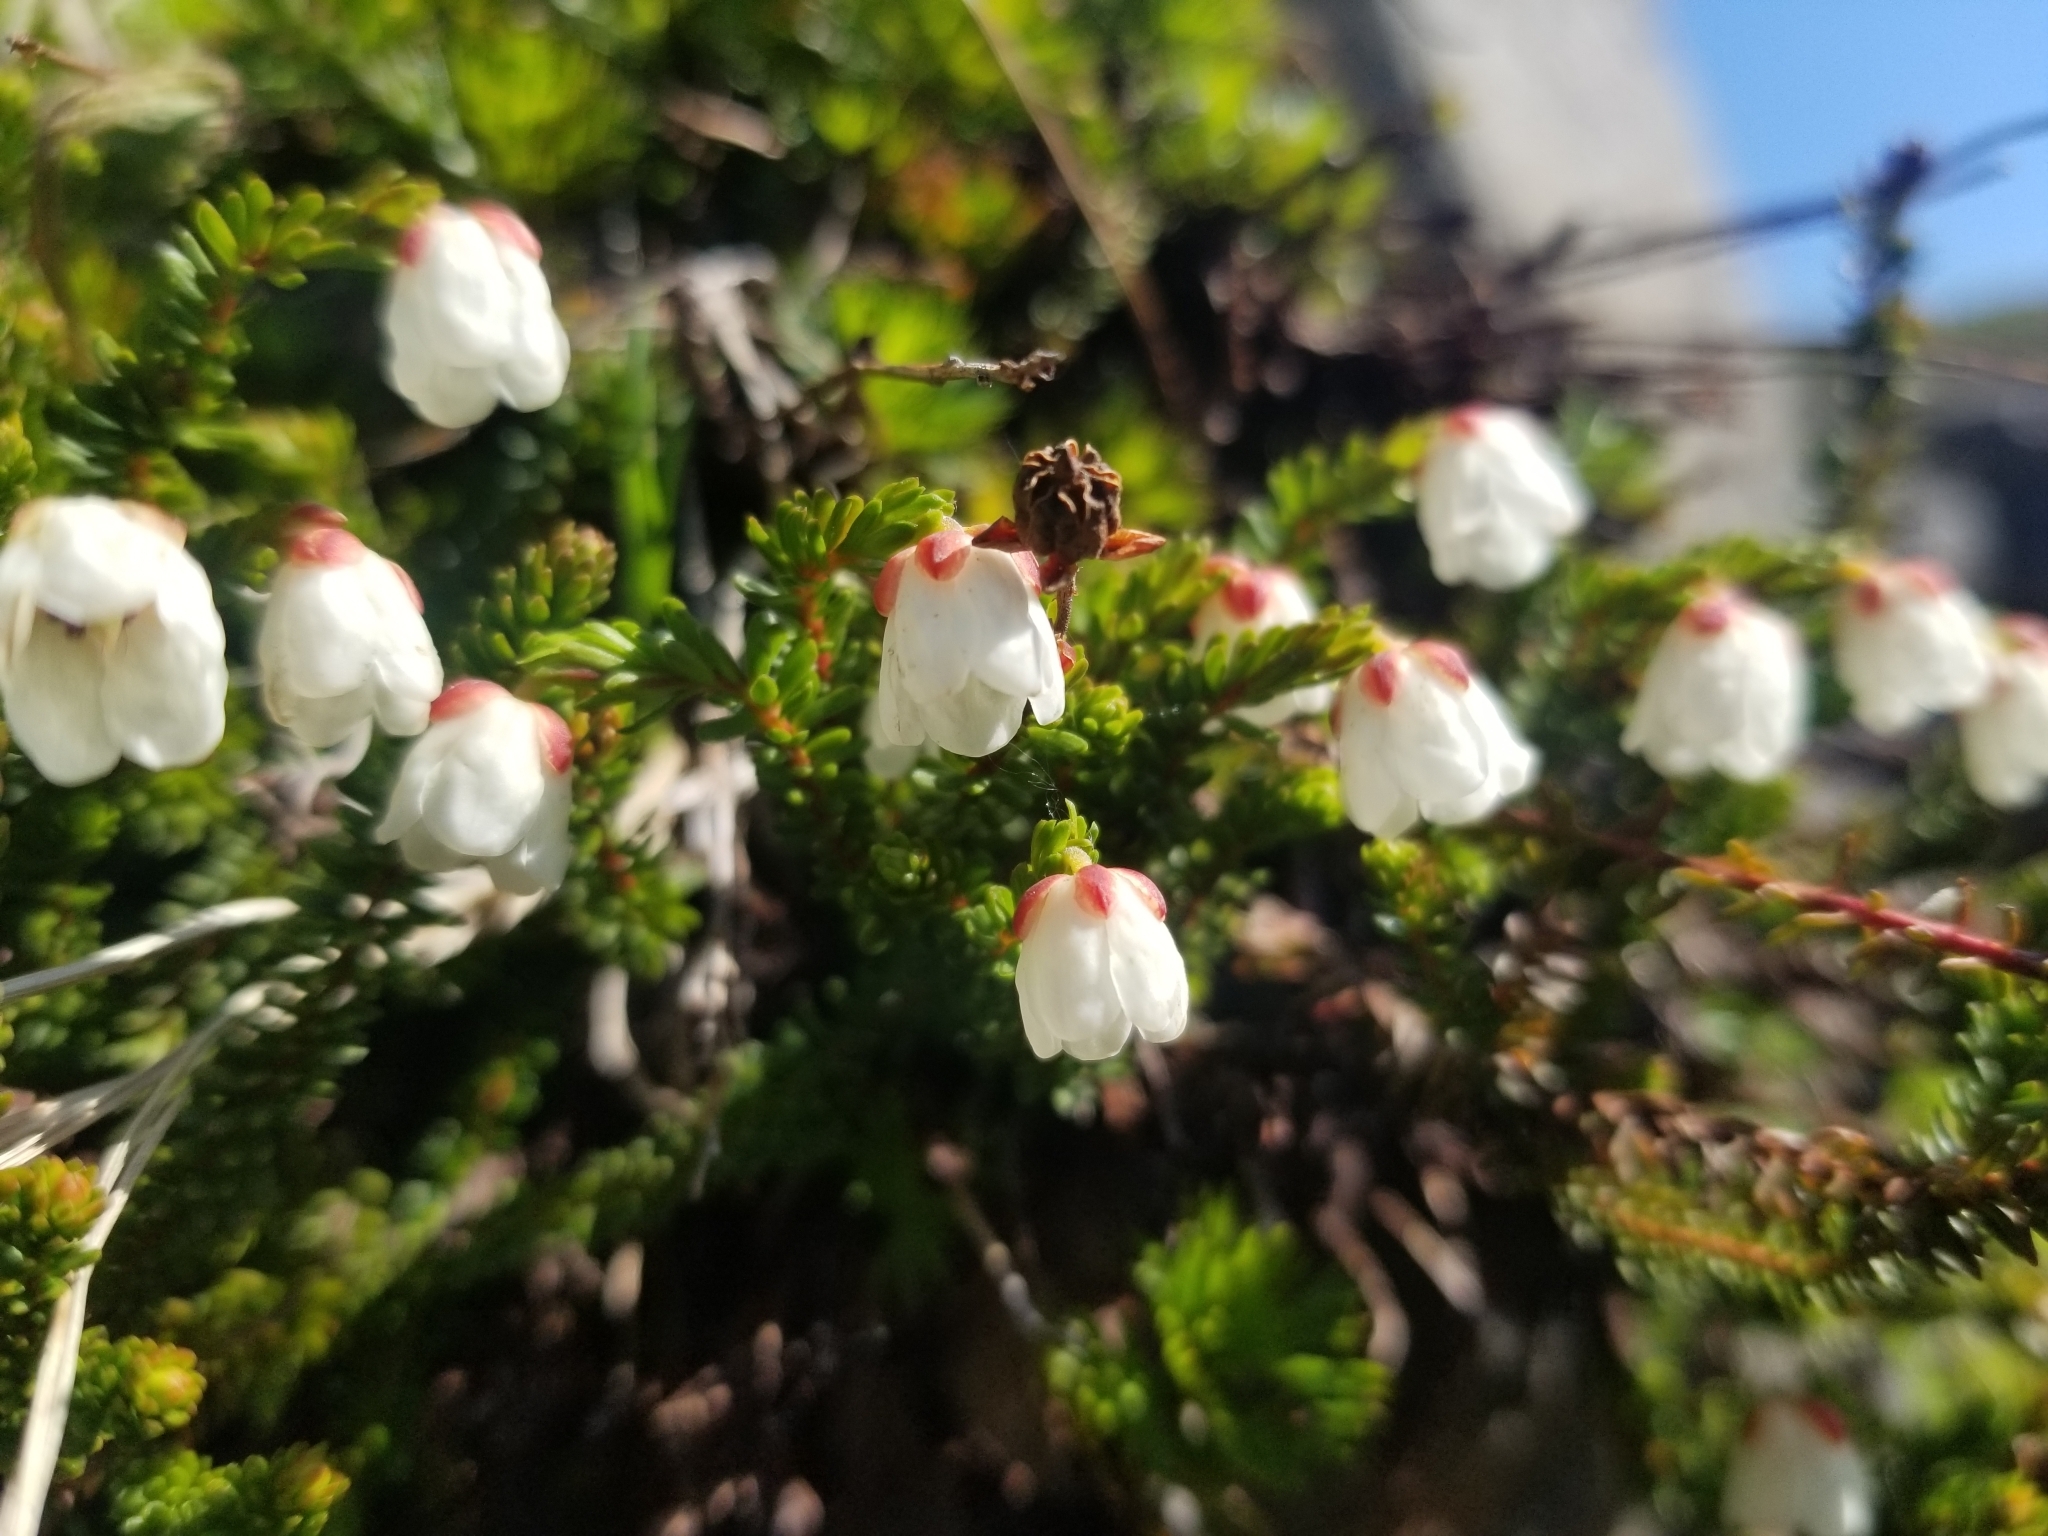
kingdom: Plantae
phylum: Tracheophyta
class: Magnoliopsida
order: Ericales
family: Ericaceae
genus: Harrimanella
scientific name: Harrimanella stelleriana
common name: Alaska bell heather
